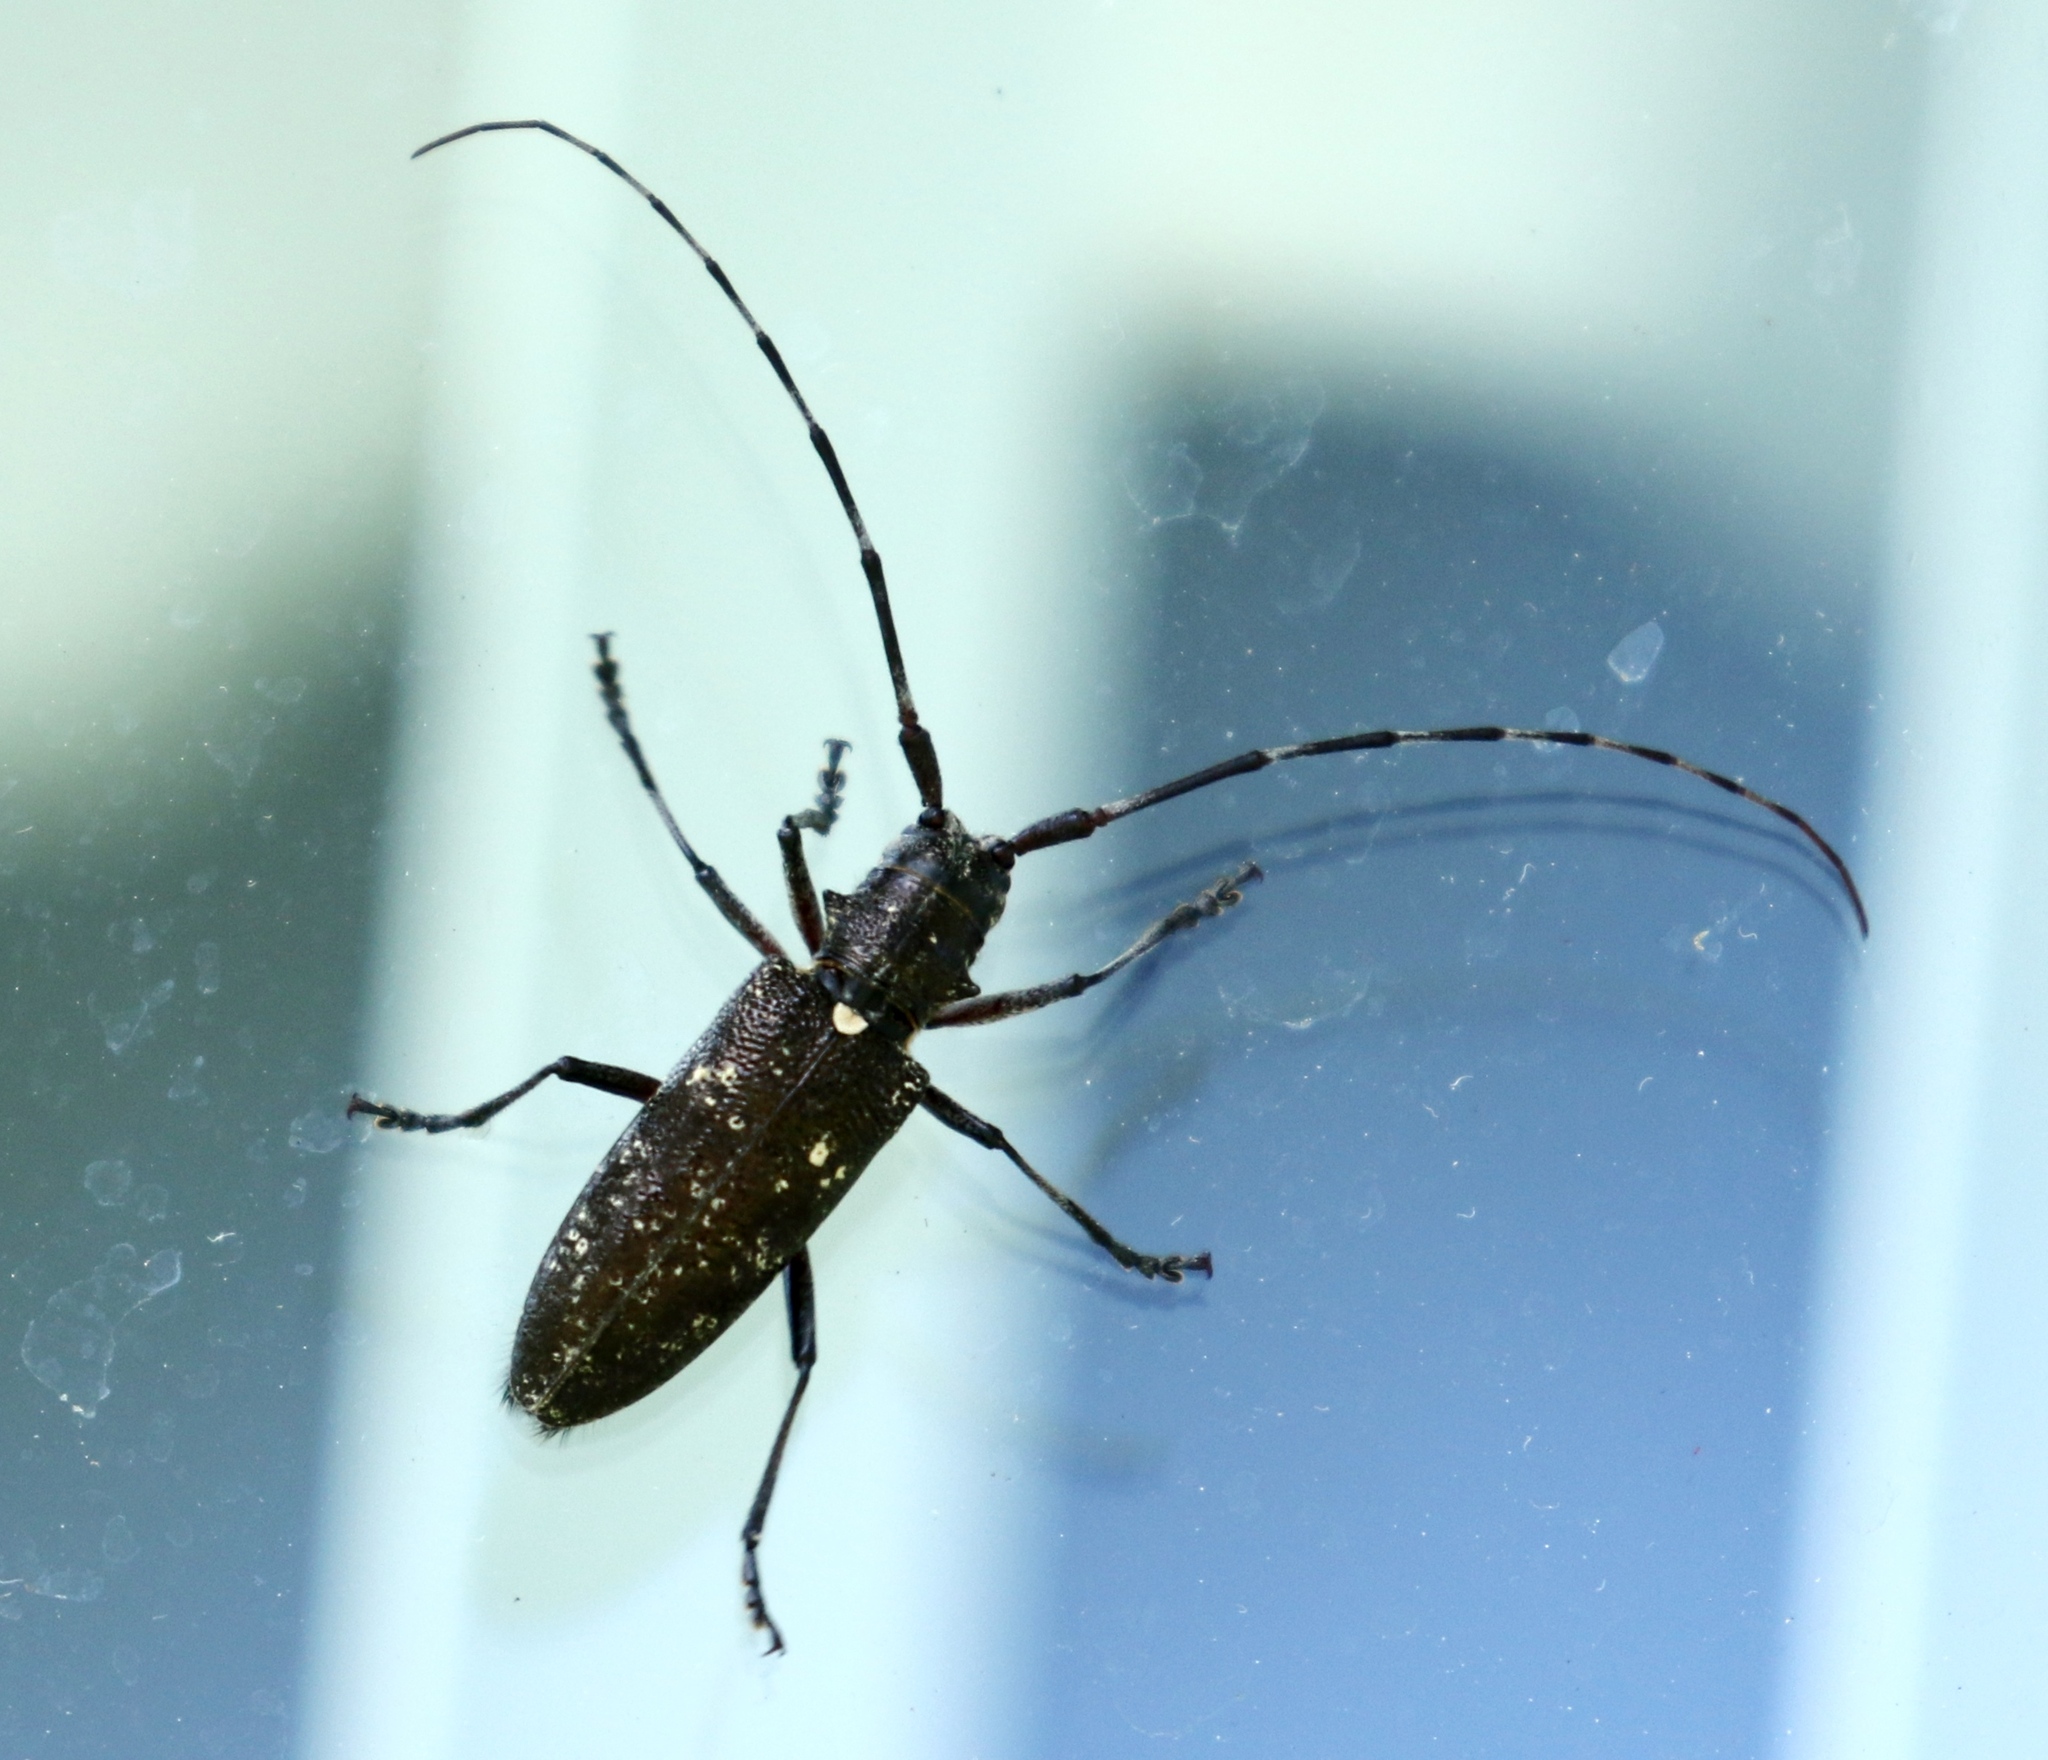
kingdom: Animalia
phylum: Arthropoda
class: Insecta
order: Coleoptera
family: Cerambycidae
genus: Monochamus
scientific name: Monochamus scutellatus
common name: White-spotted sawyer beetle
